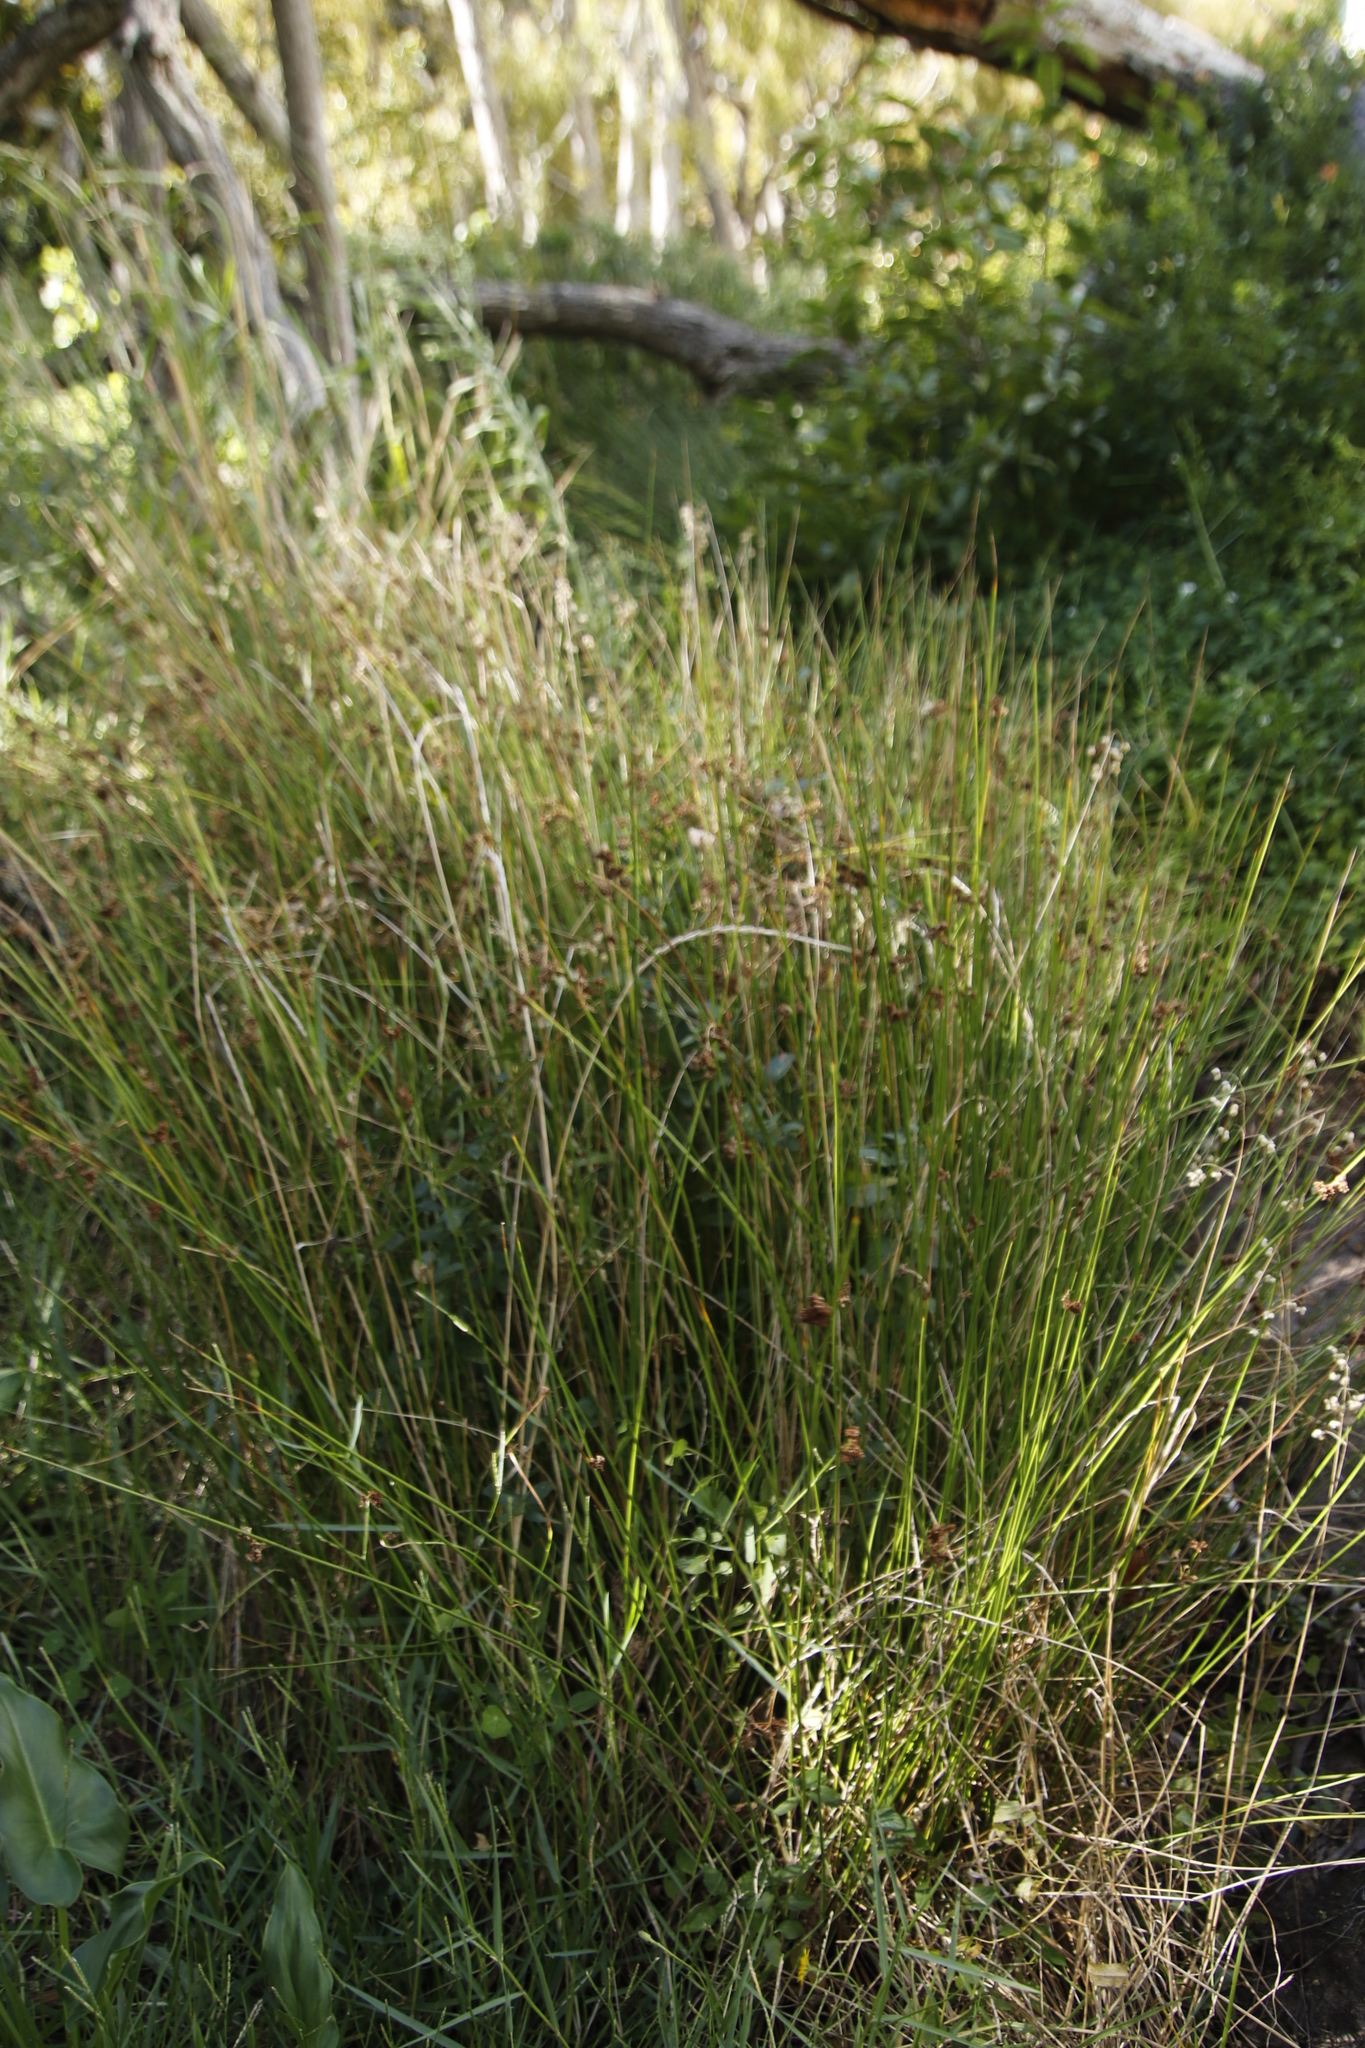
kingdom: Plantae
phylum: Tracheophyta
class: Liliopsida
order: Poales
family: Juncaceae
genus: Juncus
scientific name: Juncus effusus
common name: Soft rush
